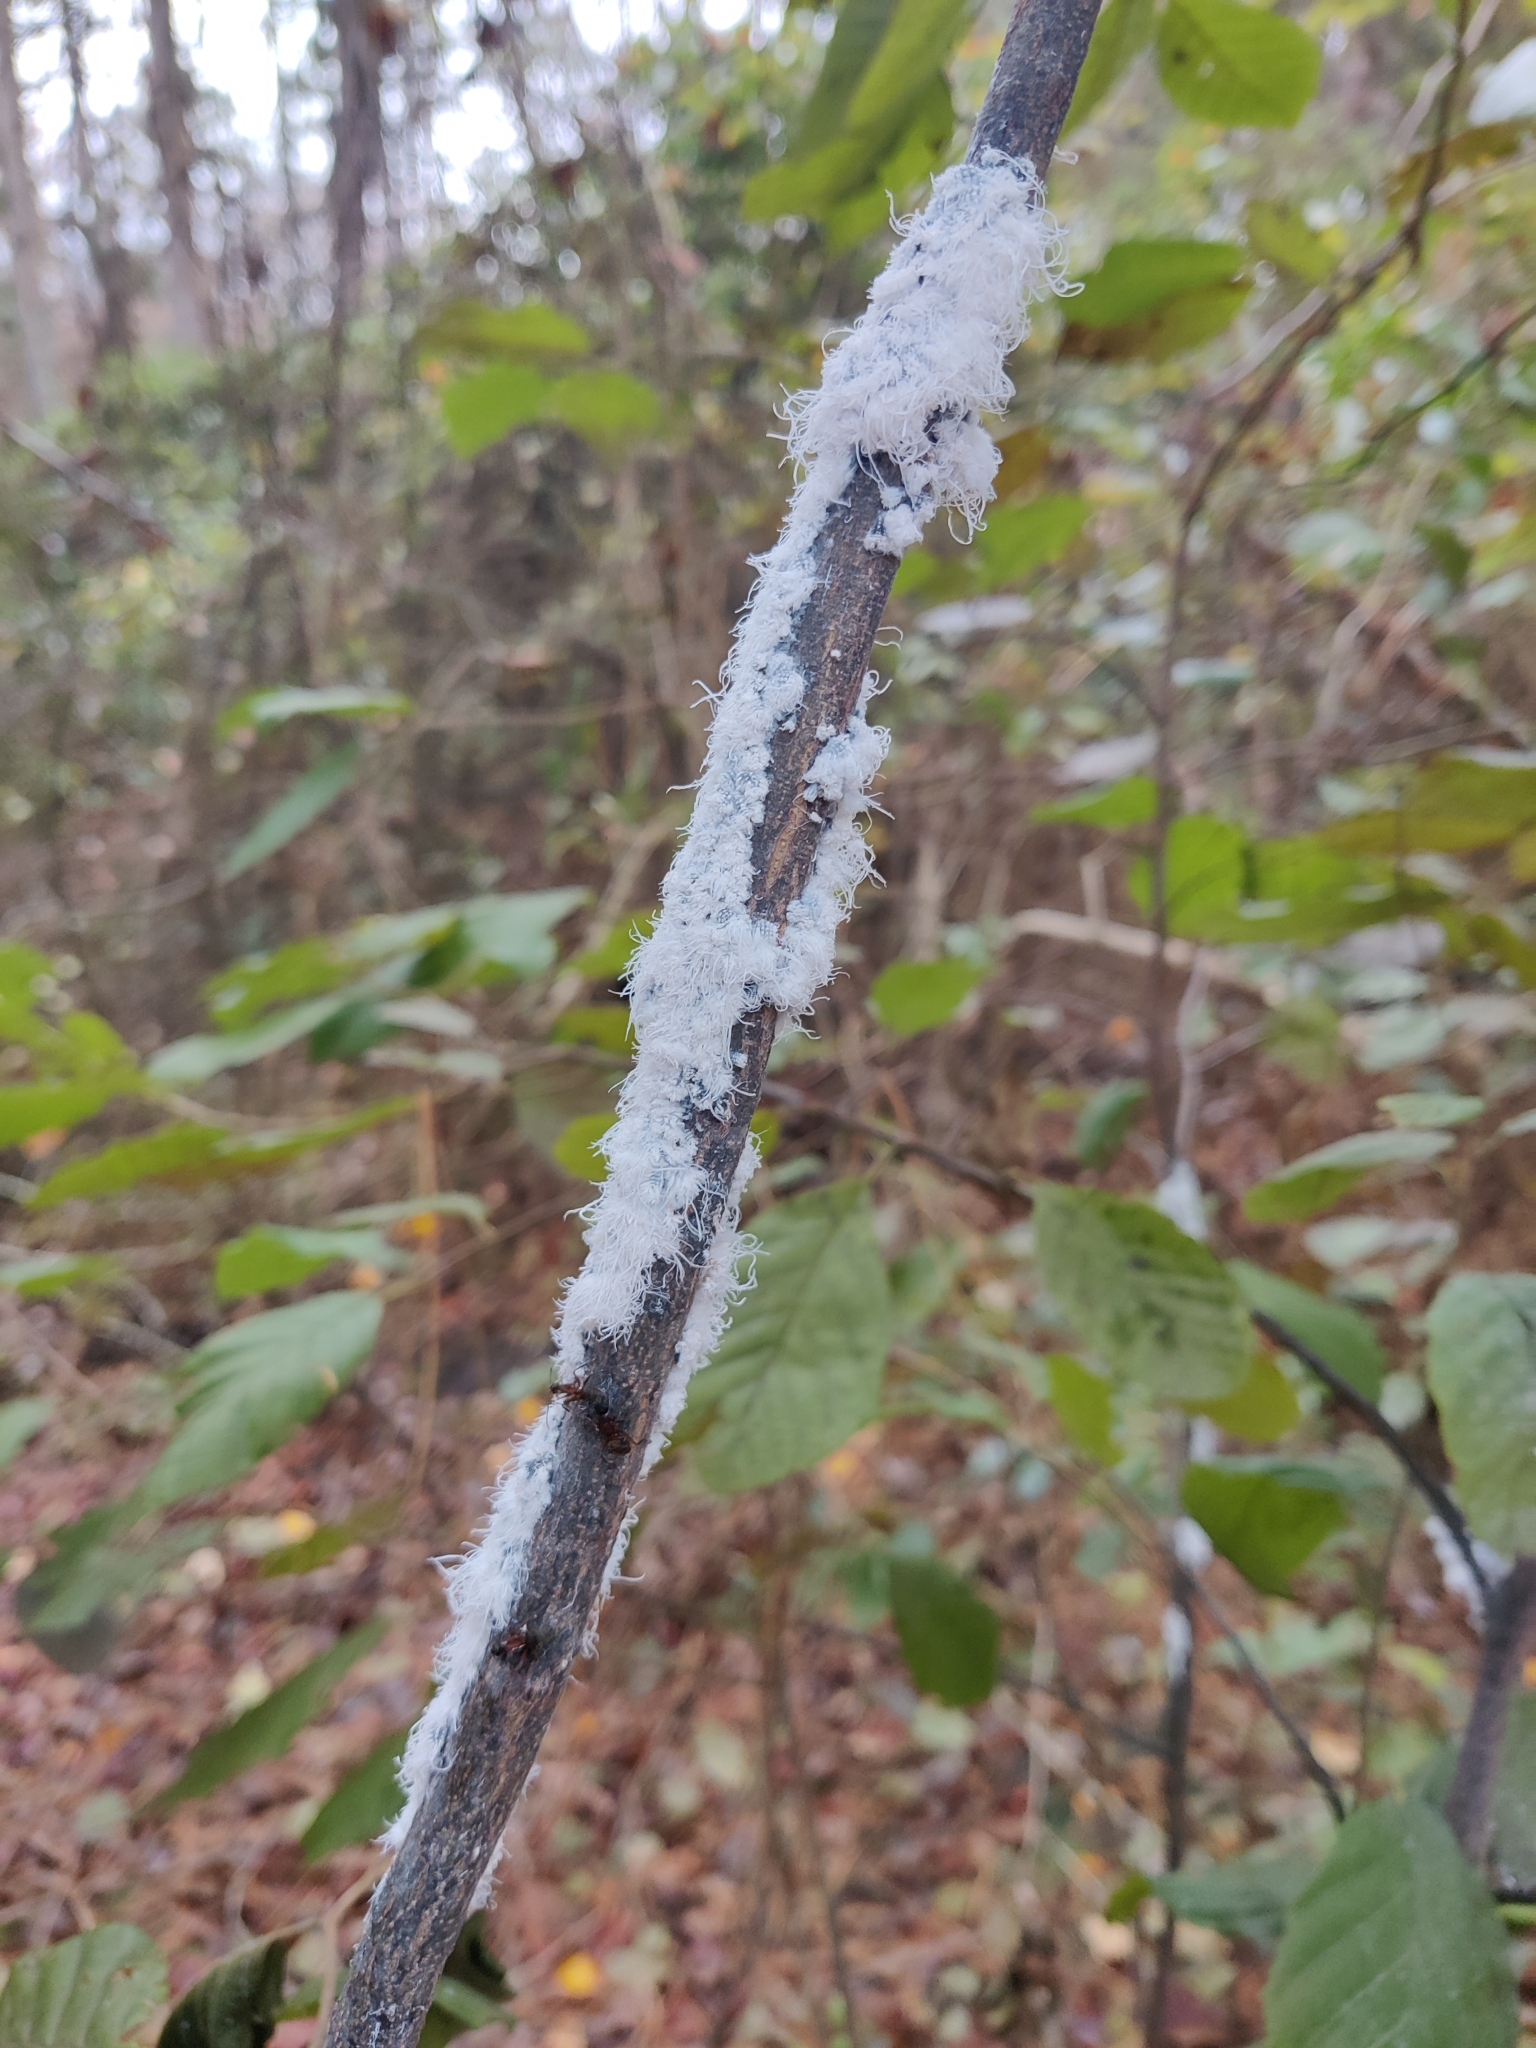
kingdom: Animalia
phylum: Arthropoda
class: Insecta
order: Hemiptera
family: Aphididae
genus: Prociphilus
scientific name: Prociphilus tessellatus
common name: Woolly alder aphid
